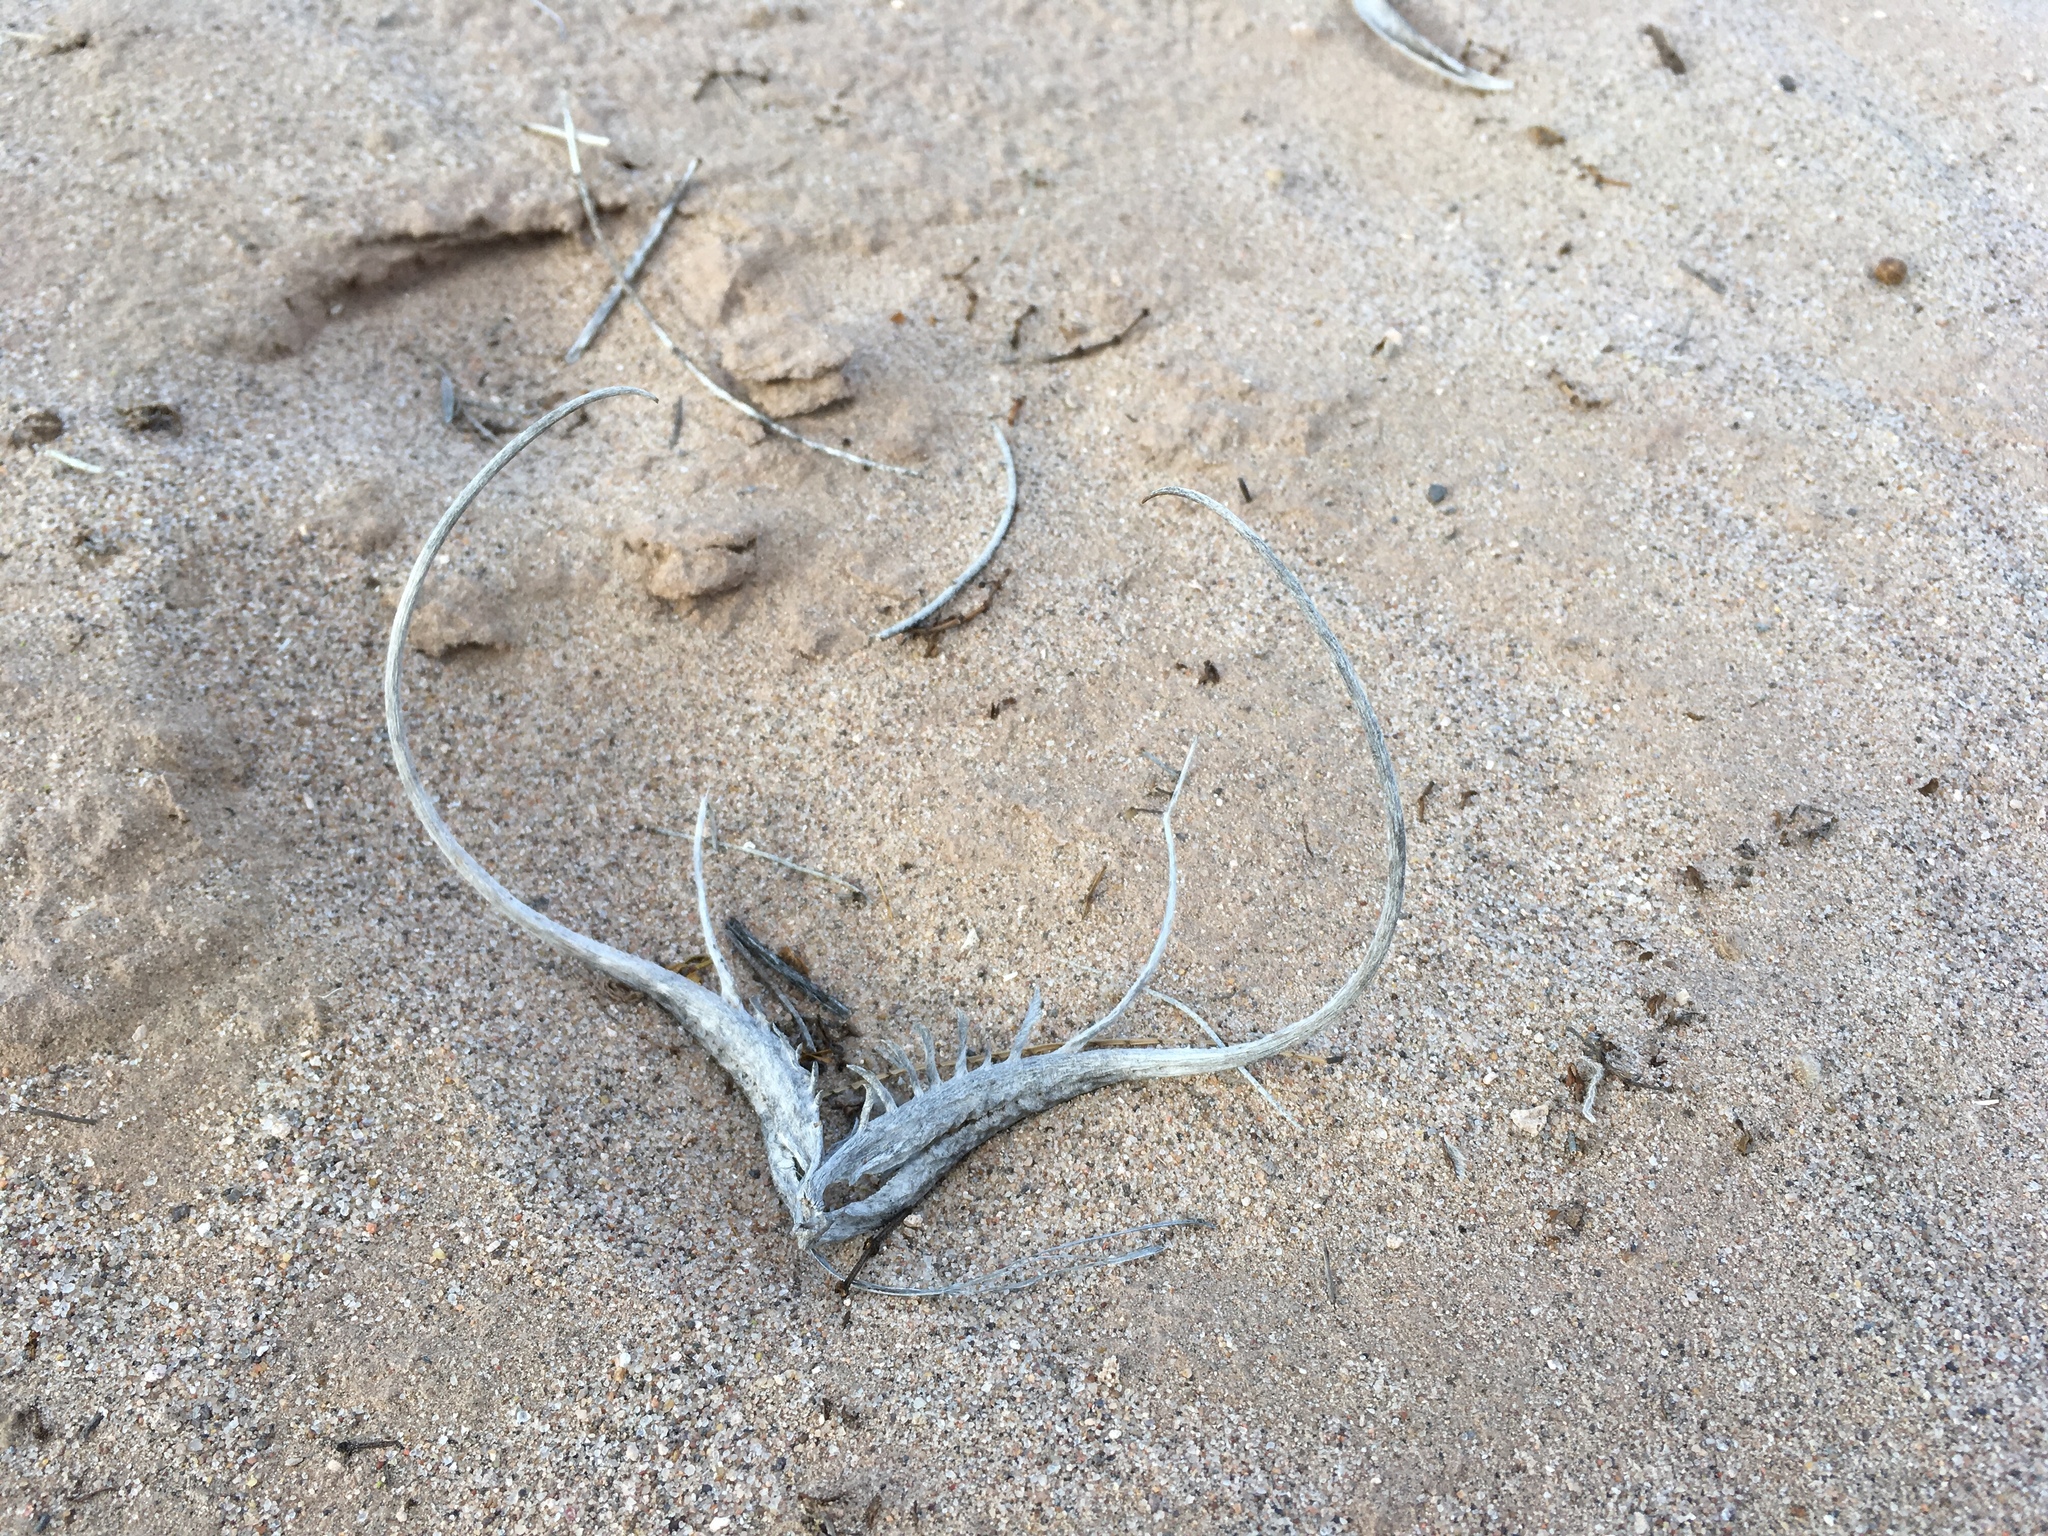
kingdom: Plantae
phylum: Tracheophyta
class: Magnoliopsida
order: Lamiales
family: Martyniaceae
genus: Proboscidea
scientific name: Proboscidea althaeifolia
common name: Desert unicorn-plant
